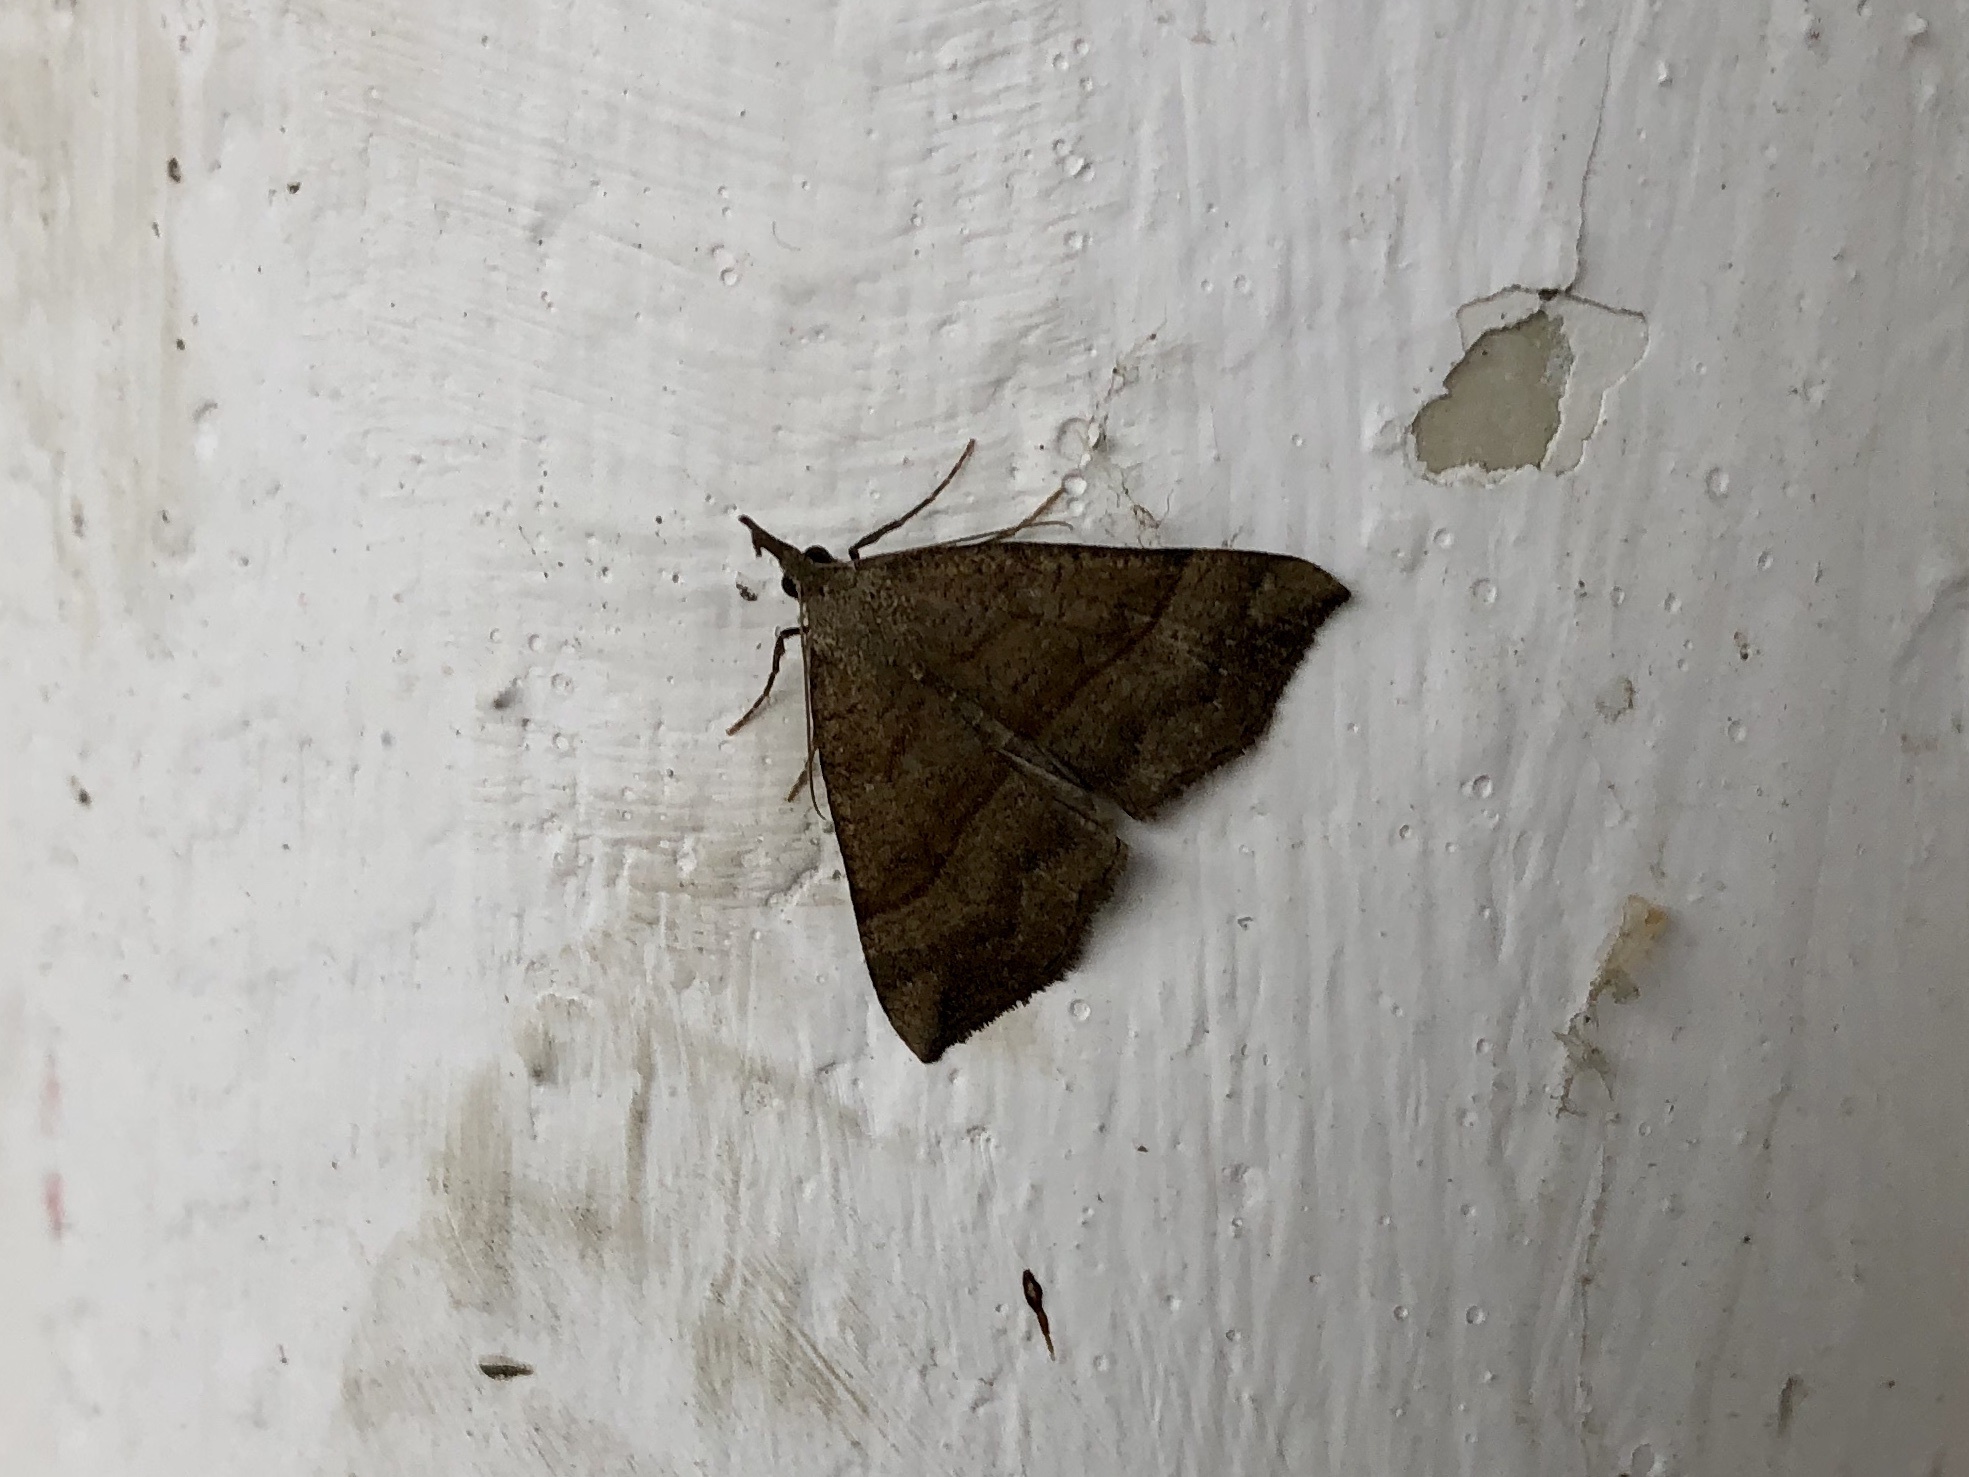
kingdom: Animalia
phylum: Arthropoda
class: Insecta
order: Lepidoptera
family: Erebidae
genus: Hypena
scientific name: Hypena proboscidalis
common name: Snout
